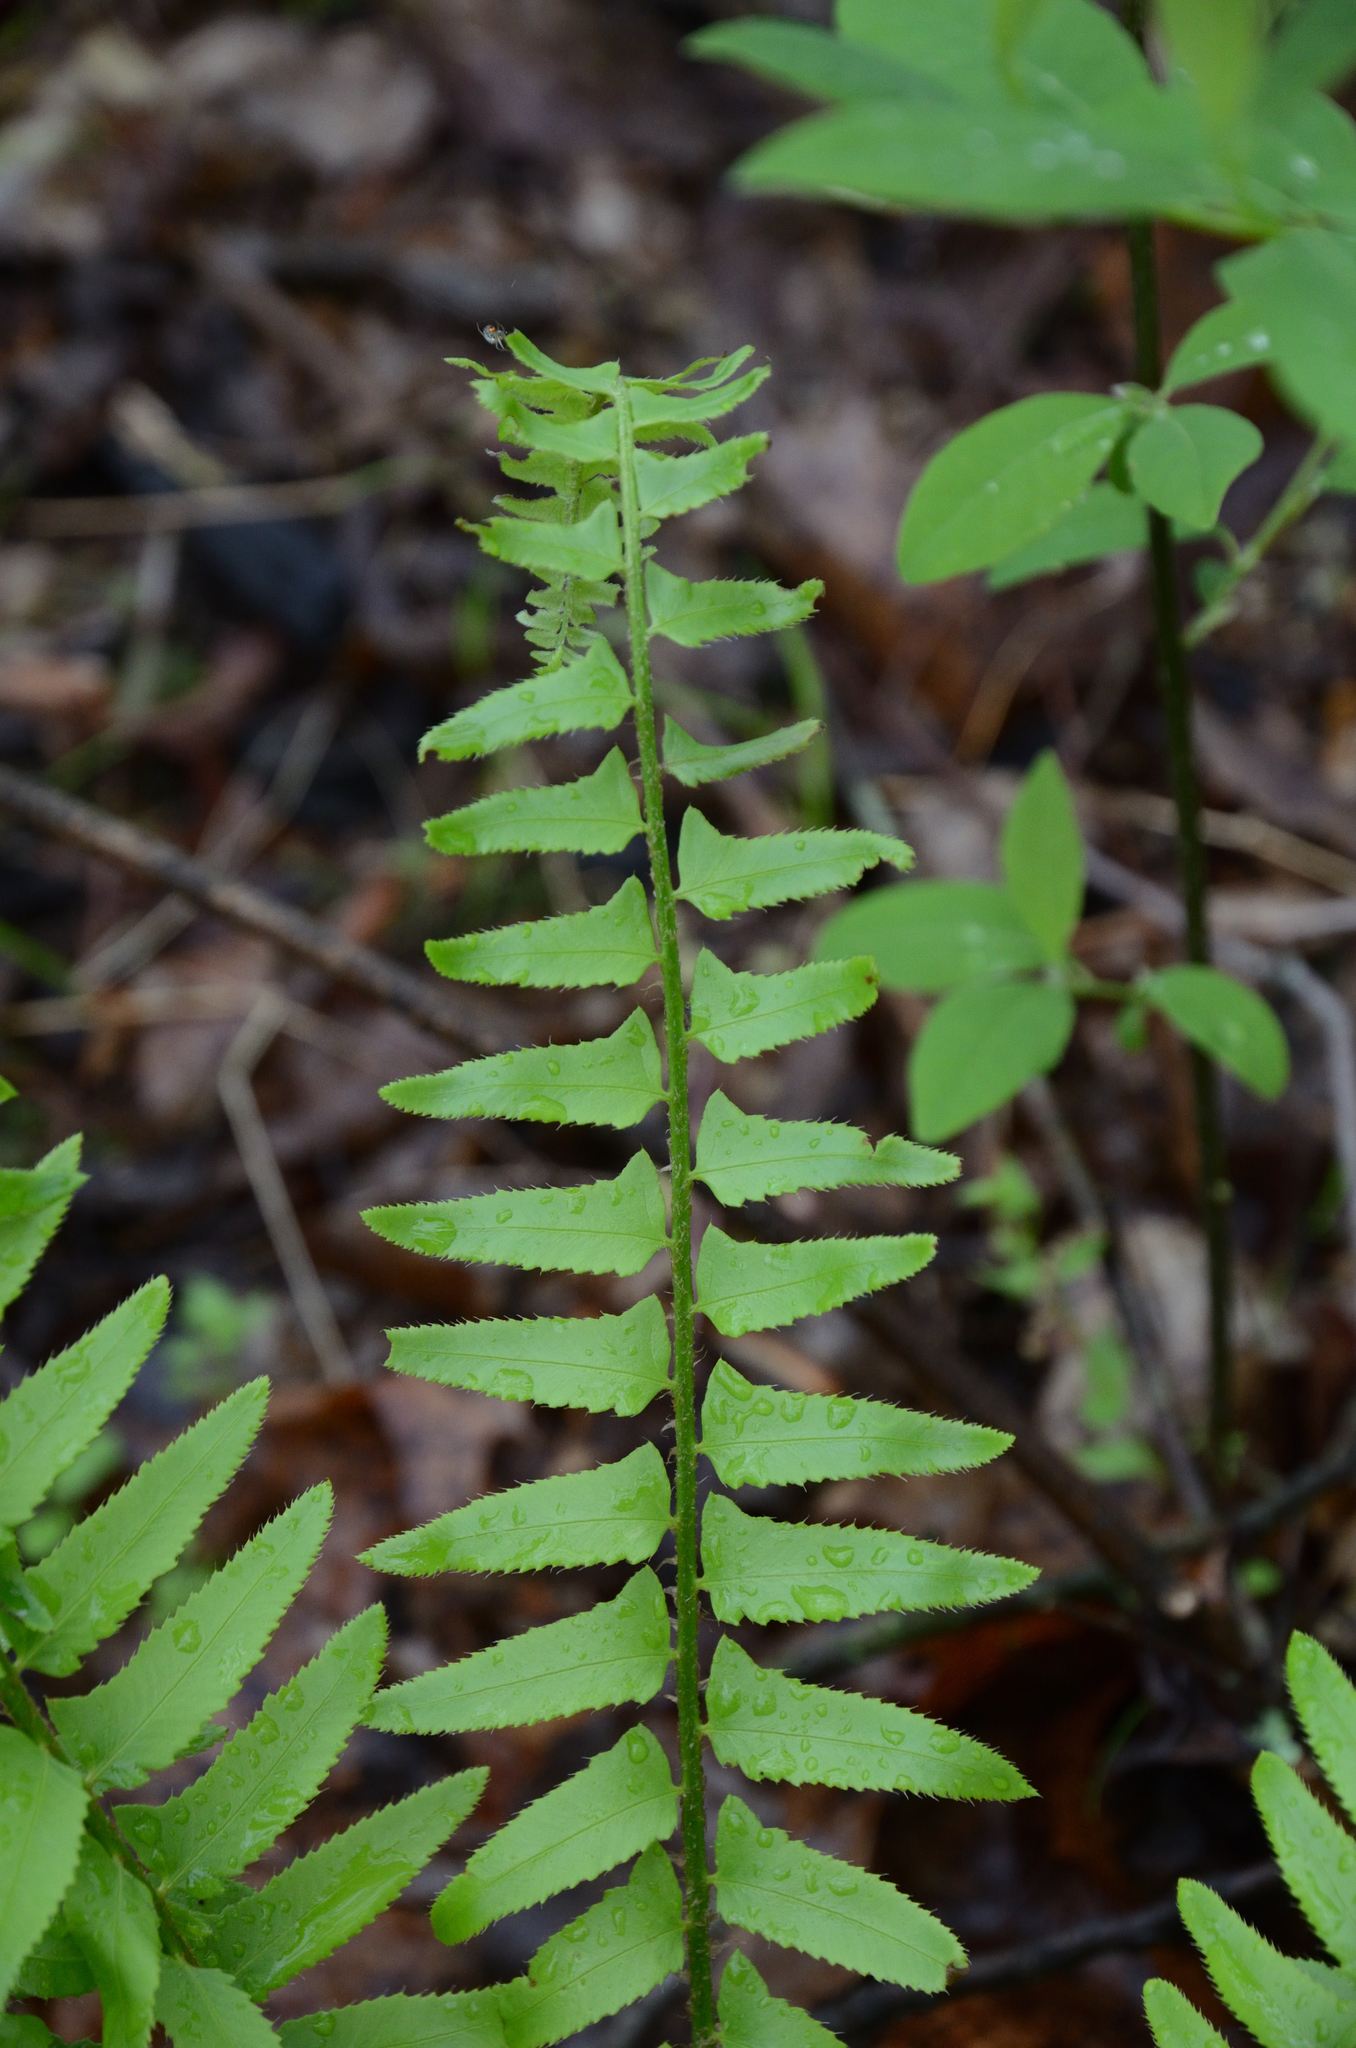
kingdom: Plantae
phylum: Tracheophyta
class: Polypodiopsida
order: Polypodiales
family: Dryopteridaceae
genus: Polystichum
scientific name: Polystichum acrostichoides
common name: Christmas fern
